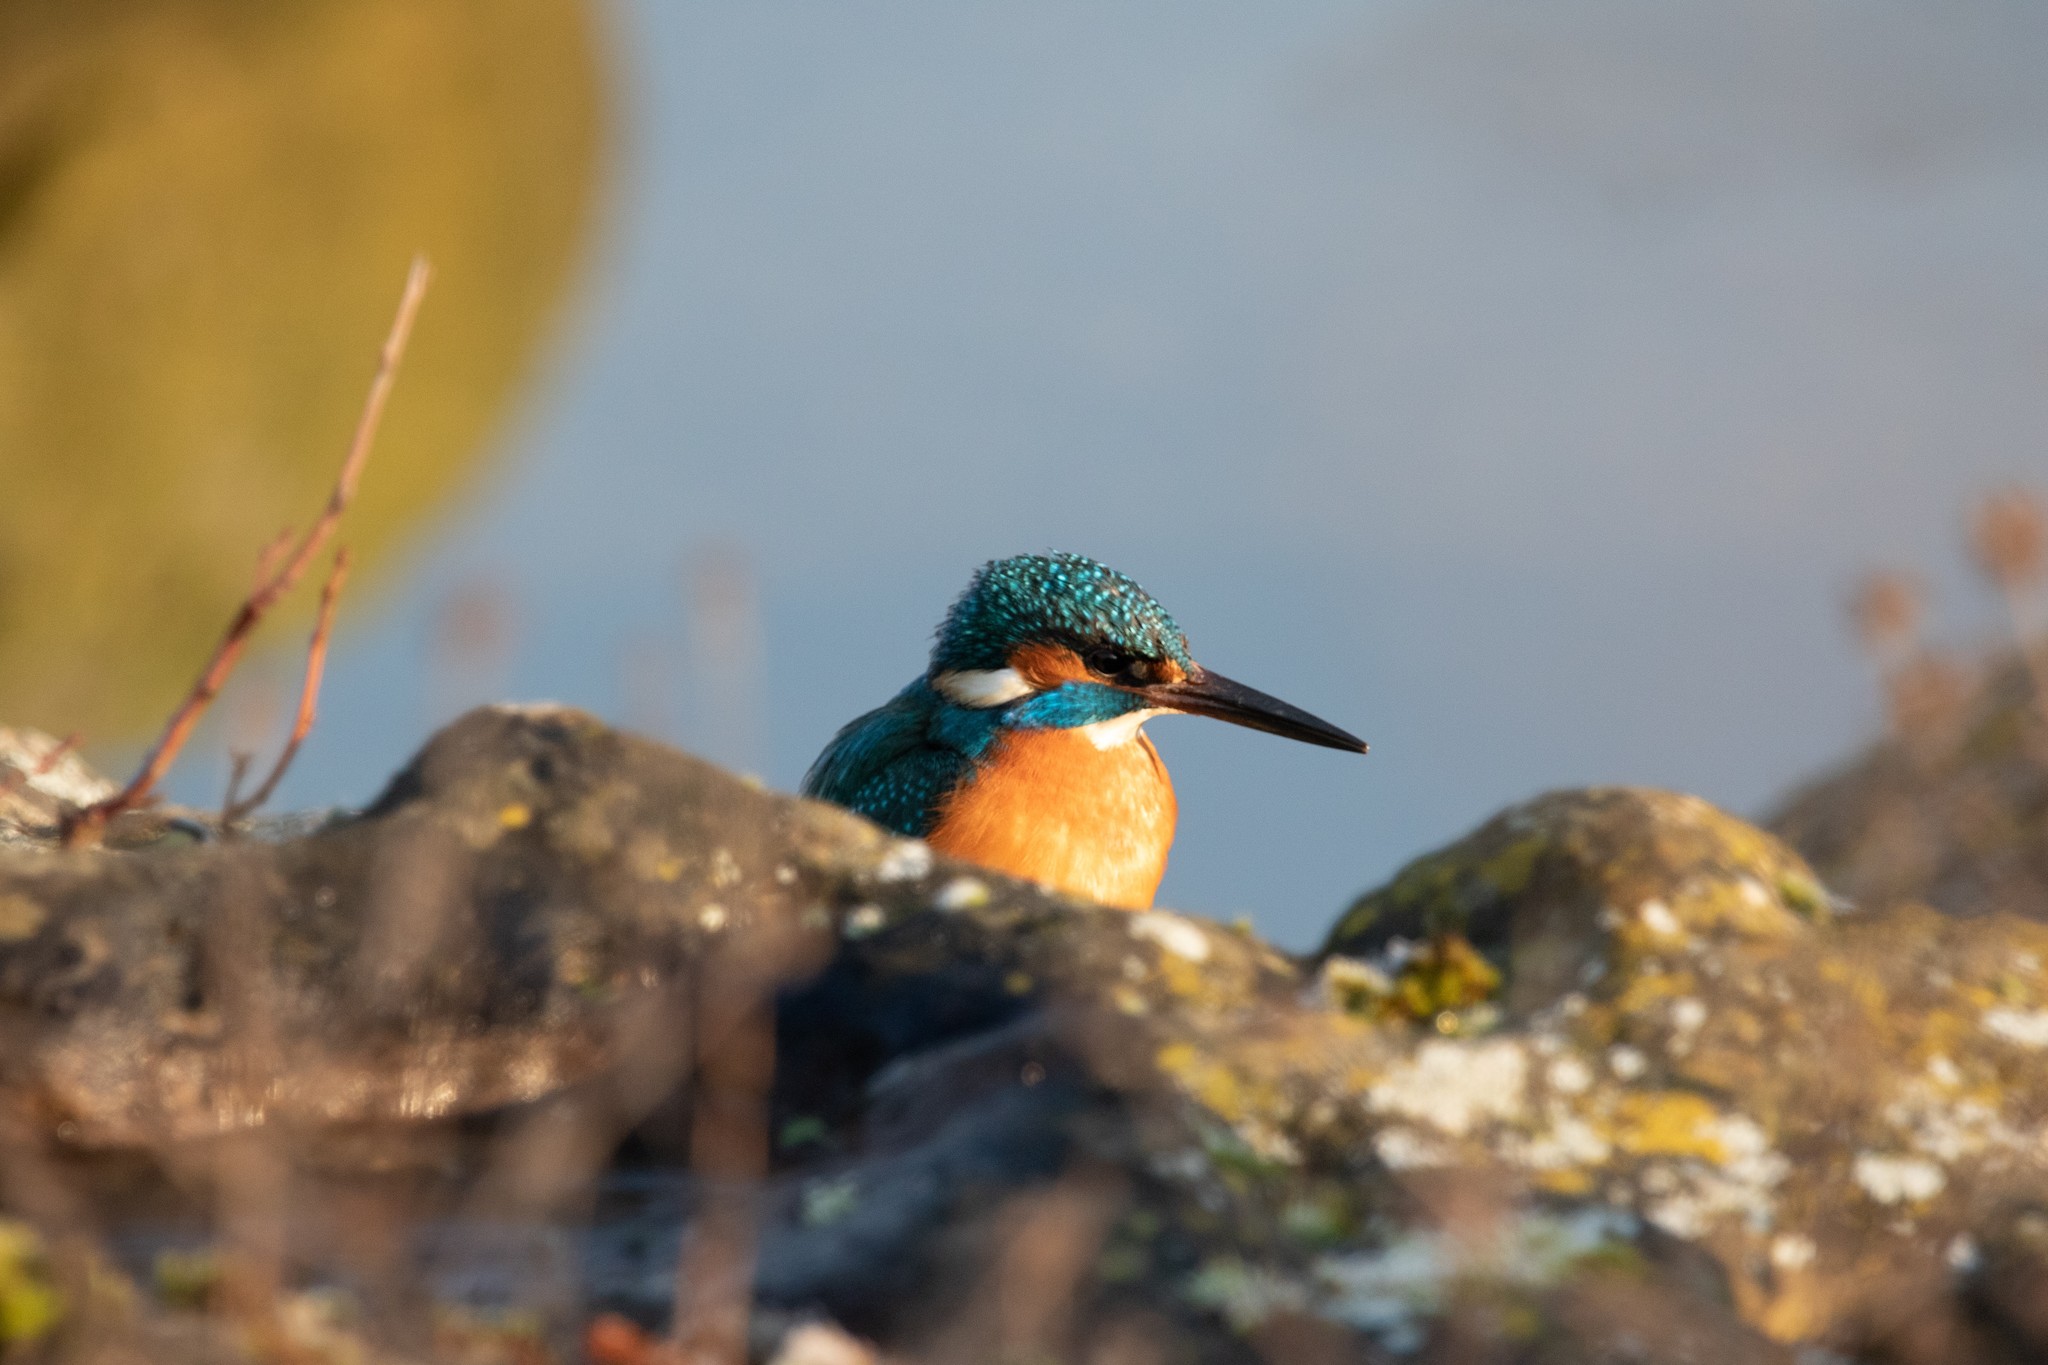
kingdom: Animalia
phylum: Chordata
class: Aves
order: Coraciiformes
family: Alcedinidae
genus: Alcedo
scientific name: Alcedo atthis
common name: Common kingfisher
